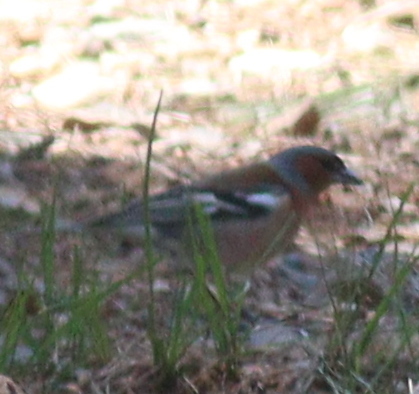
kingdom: Animalia
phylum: Chordata
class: Aves
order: Passeriformes
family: Fringillidae
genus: Fringilla
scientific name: Fringilla coelebs
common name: Common chaffinch
